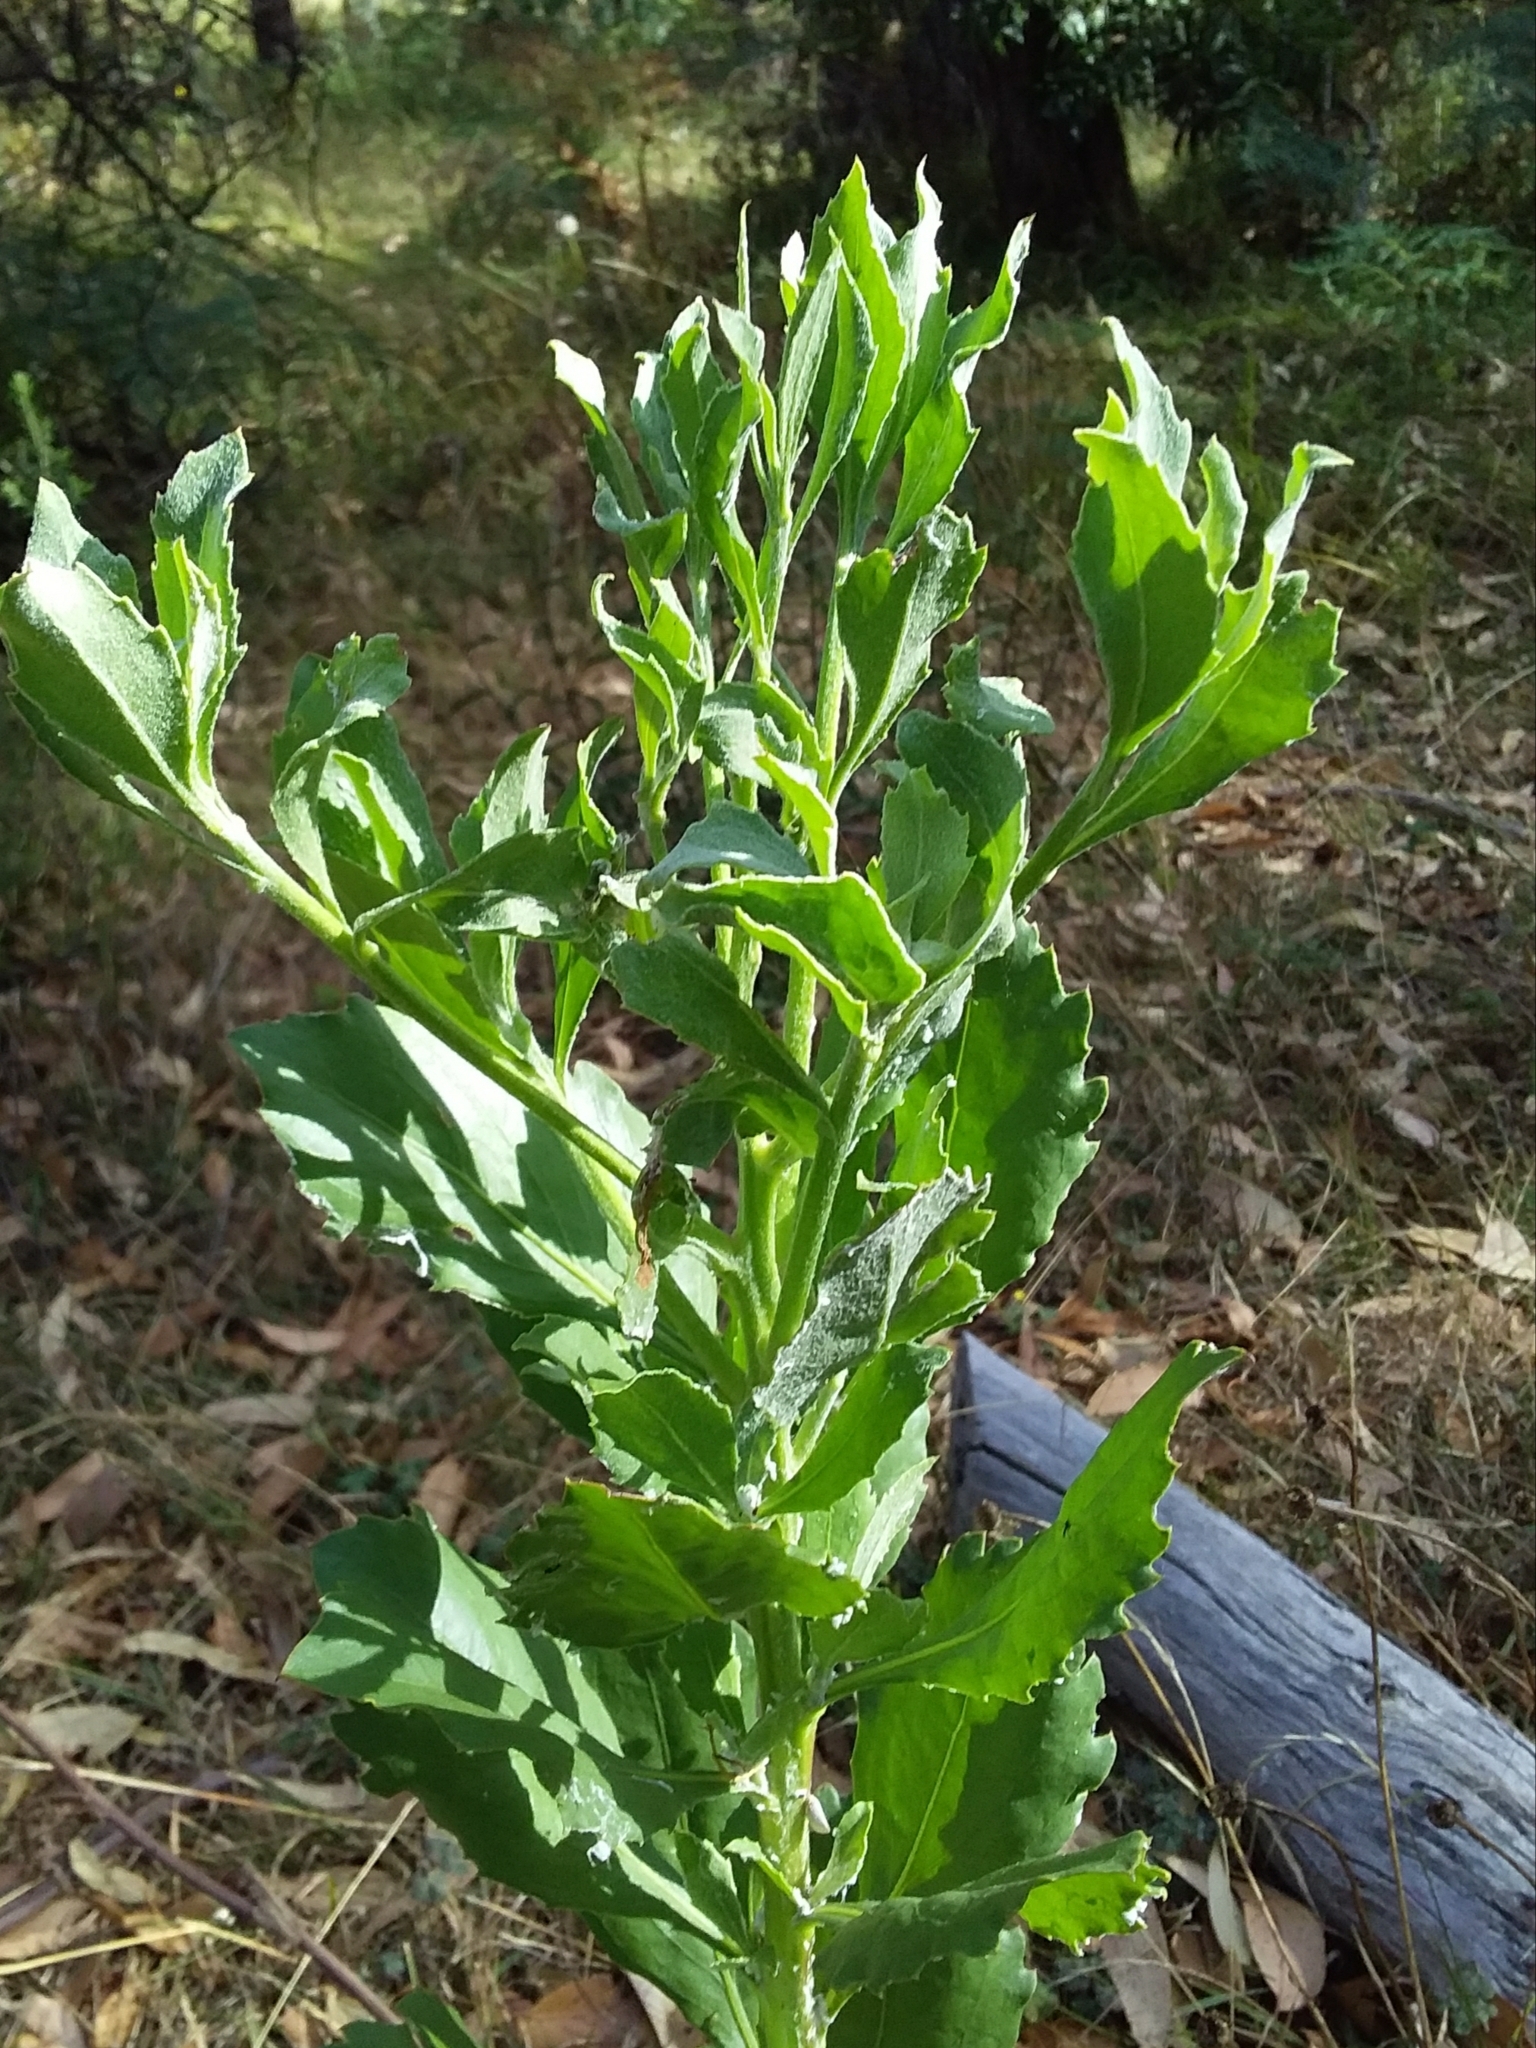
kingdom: Plantae
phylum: Tracheophyta
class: Magnoliopsida
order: Asterales
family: Asteraceae
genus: Osteospermum
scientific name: Osteospermum moniliferum
